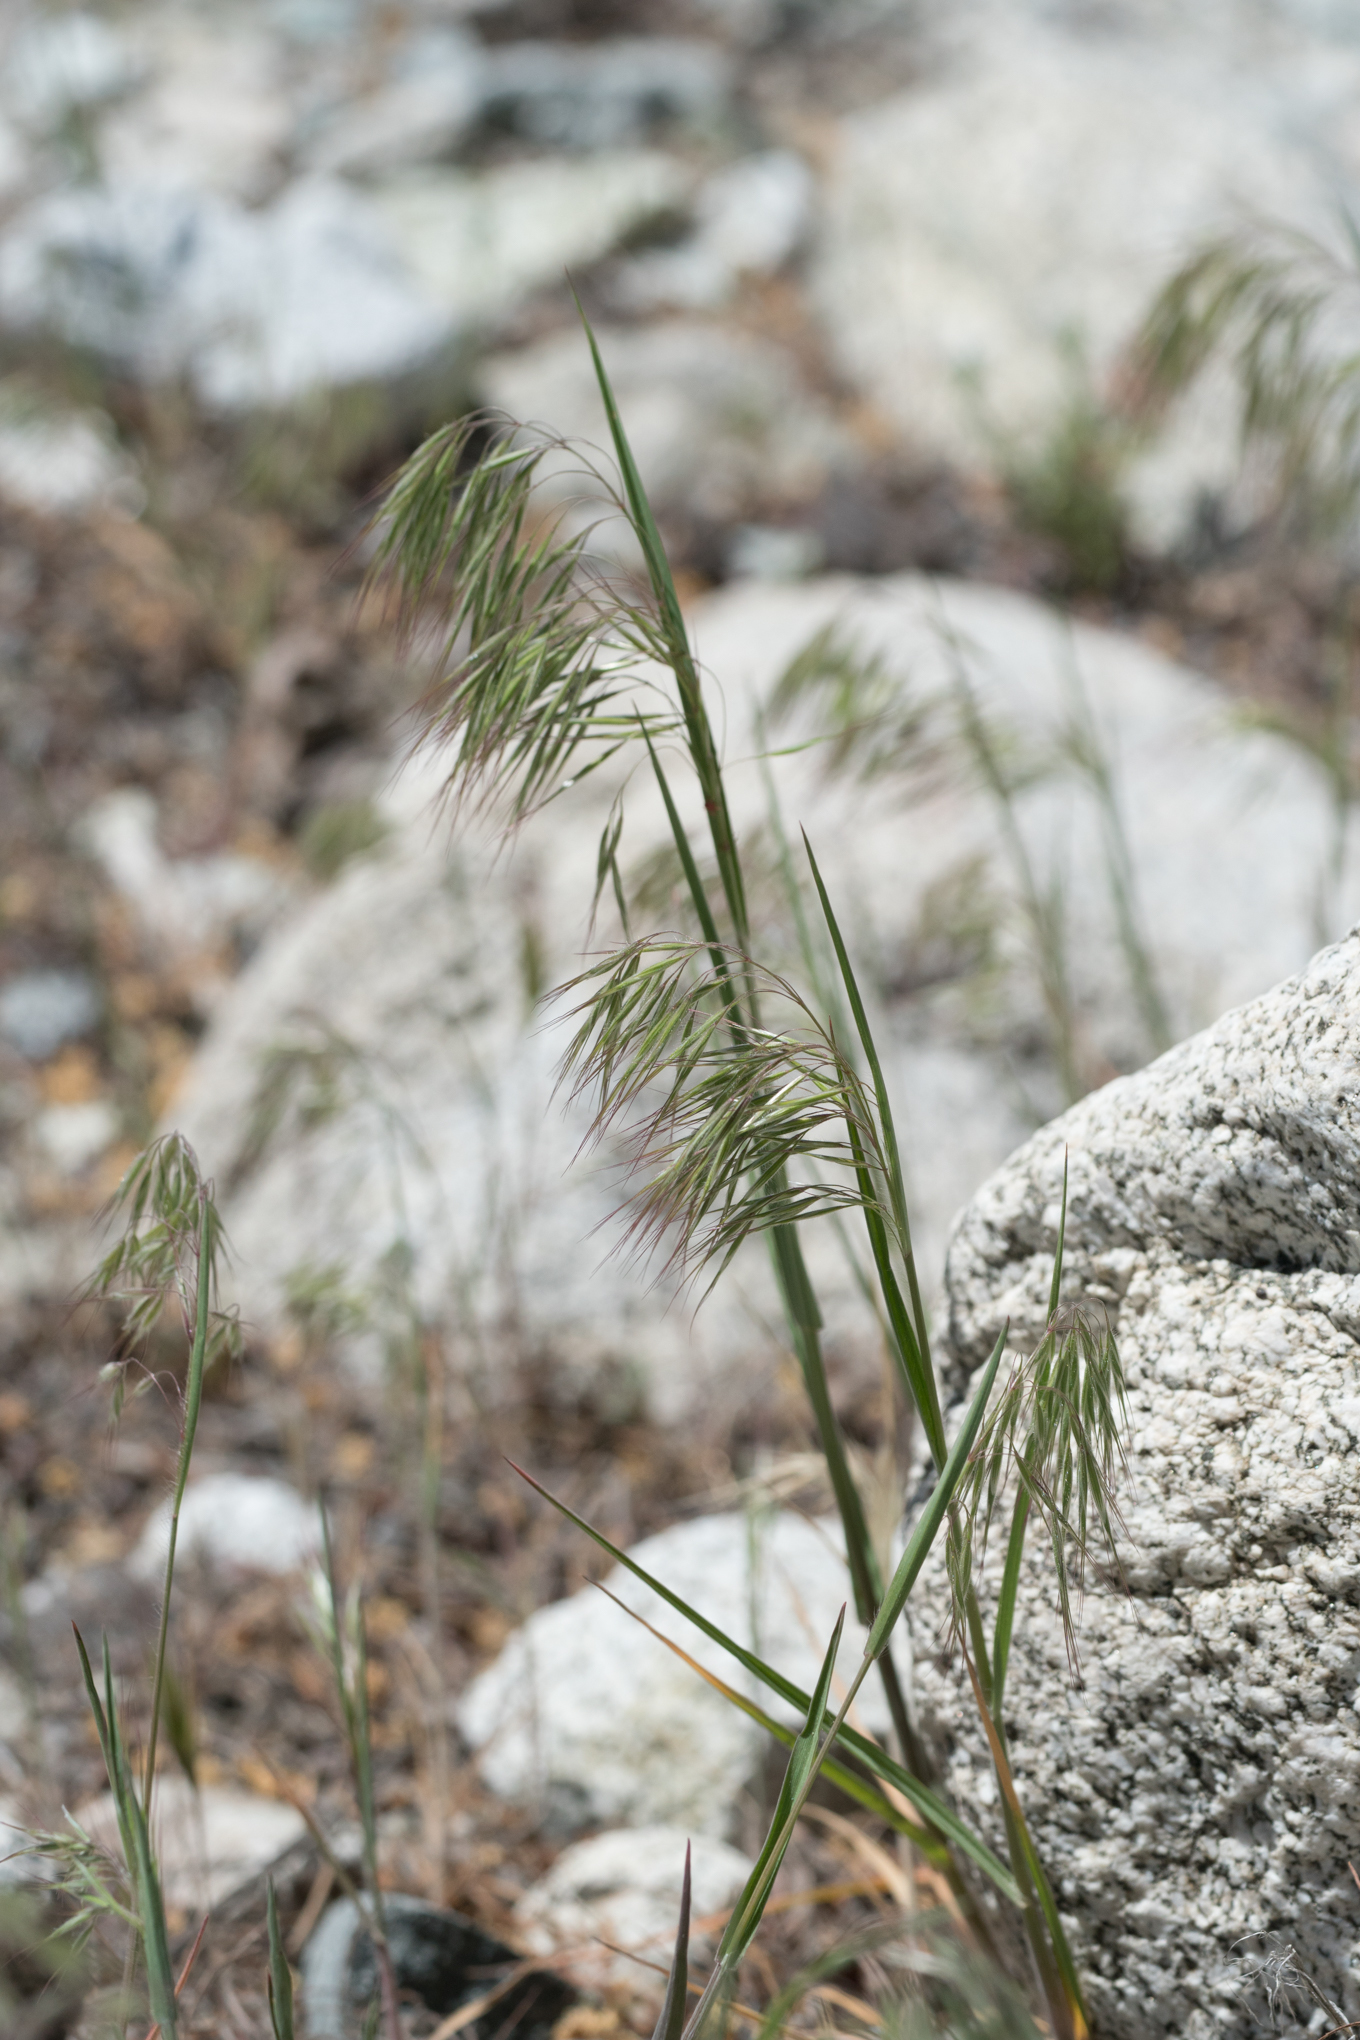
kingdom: Plantae
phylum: Tracheophyta
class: Liliopsida
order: Poales
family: Poaceae
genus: Bromus
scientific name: Bromus tectorum
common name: Cheatgrass
